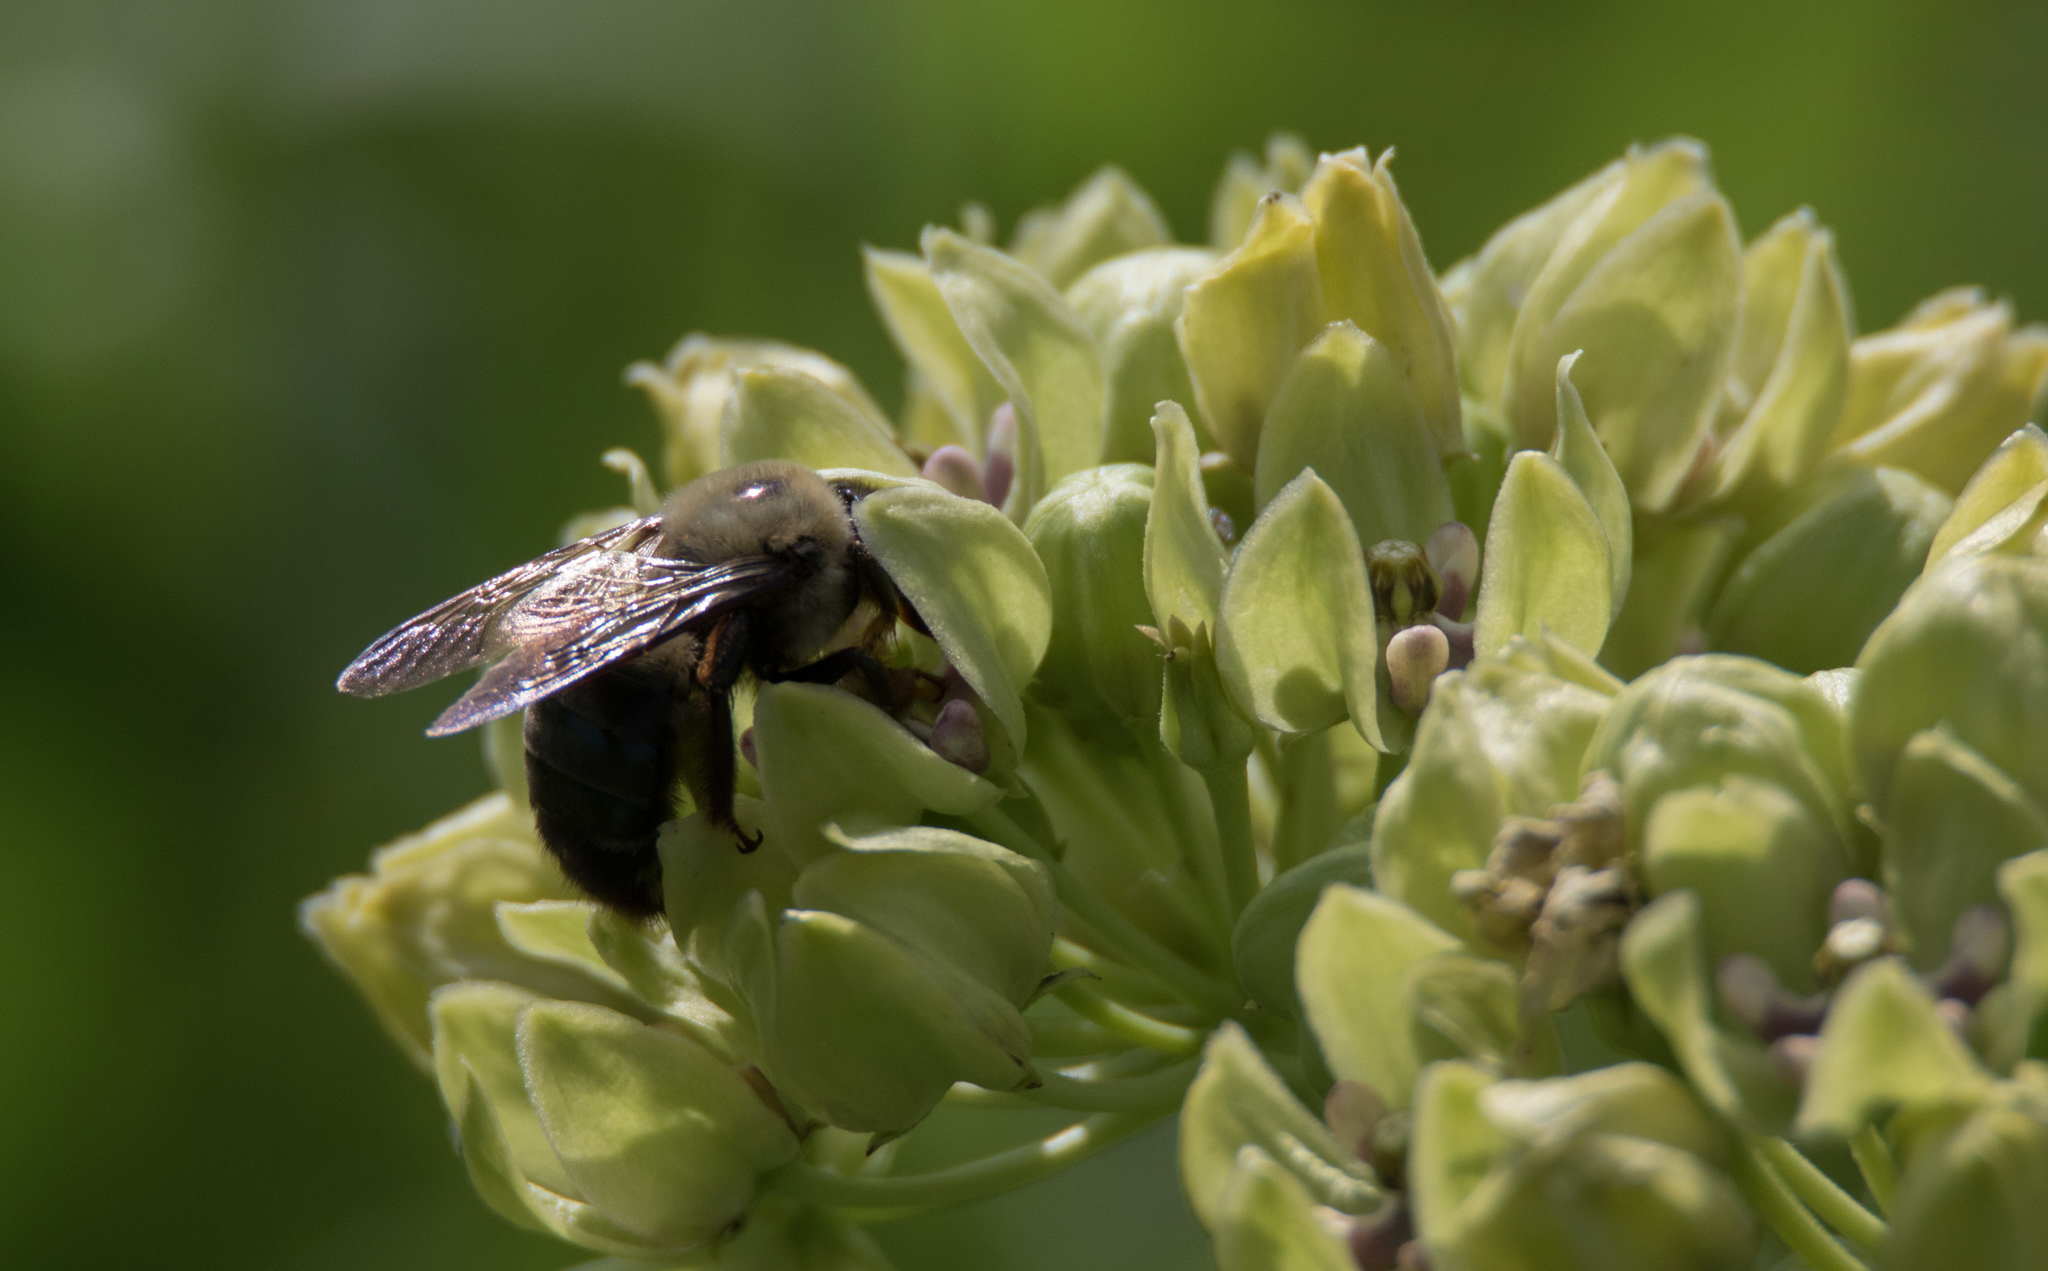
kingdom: Animalia
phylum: Arthropoda
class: Insecta
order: Hymenoptera
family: Apidae
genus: Xylocopa
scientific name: Xylocopa virginica
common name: Carpenter bee
